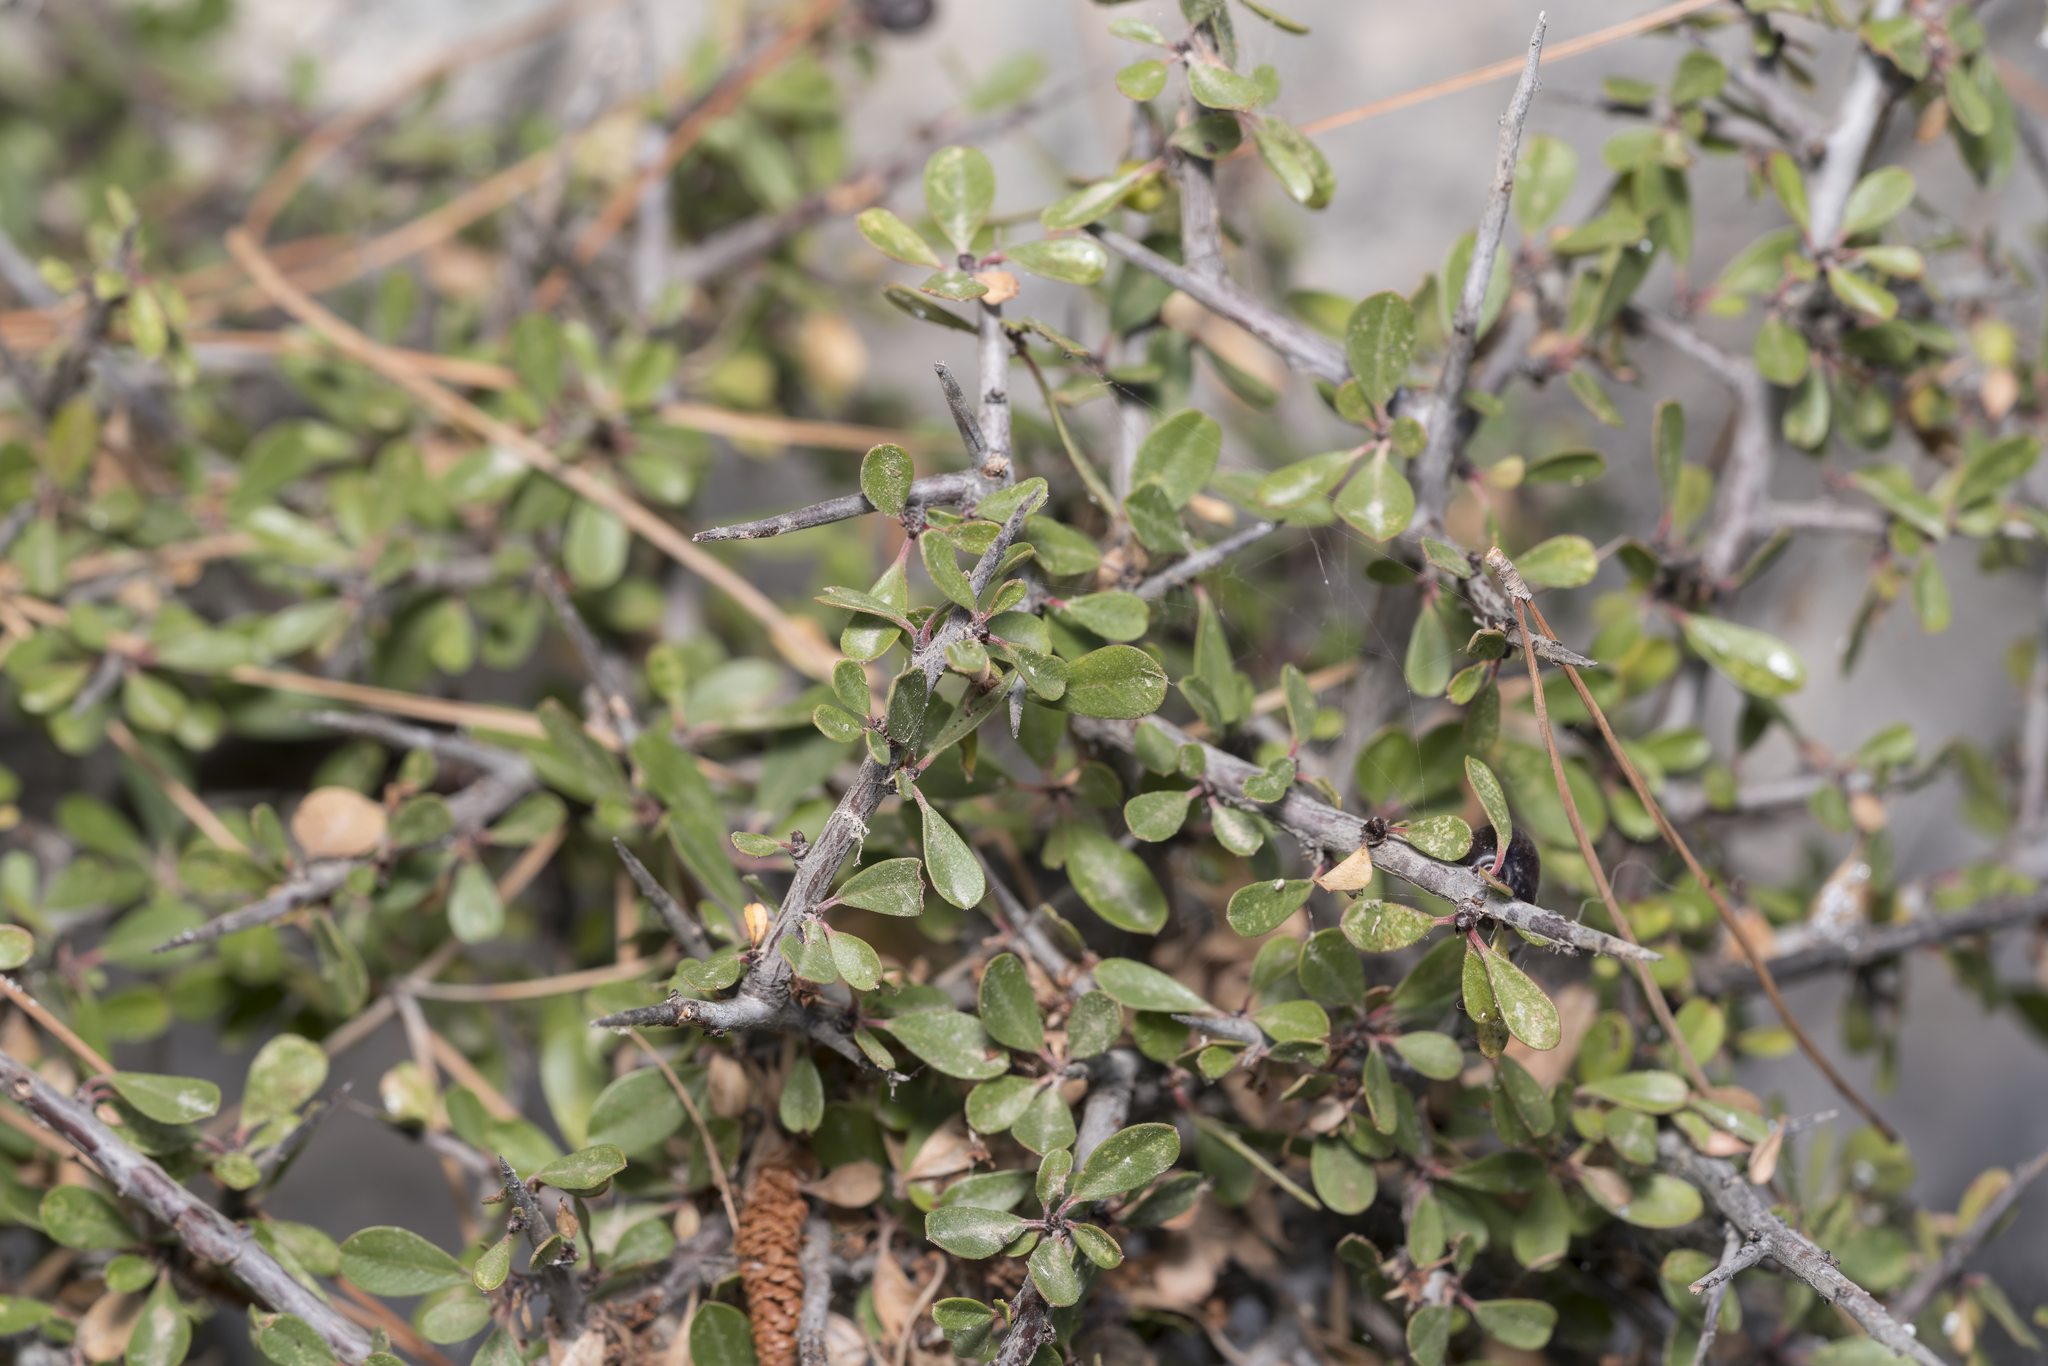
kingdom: Plantae
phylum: Tracheophyta
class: Magnoliopsida
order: Rosales
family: Rhamnaceae
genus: Rhamnus
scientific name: Rhamnus
